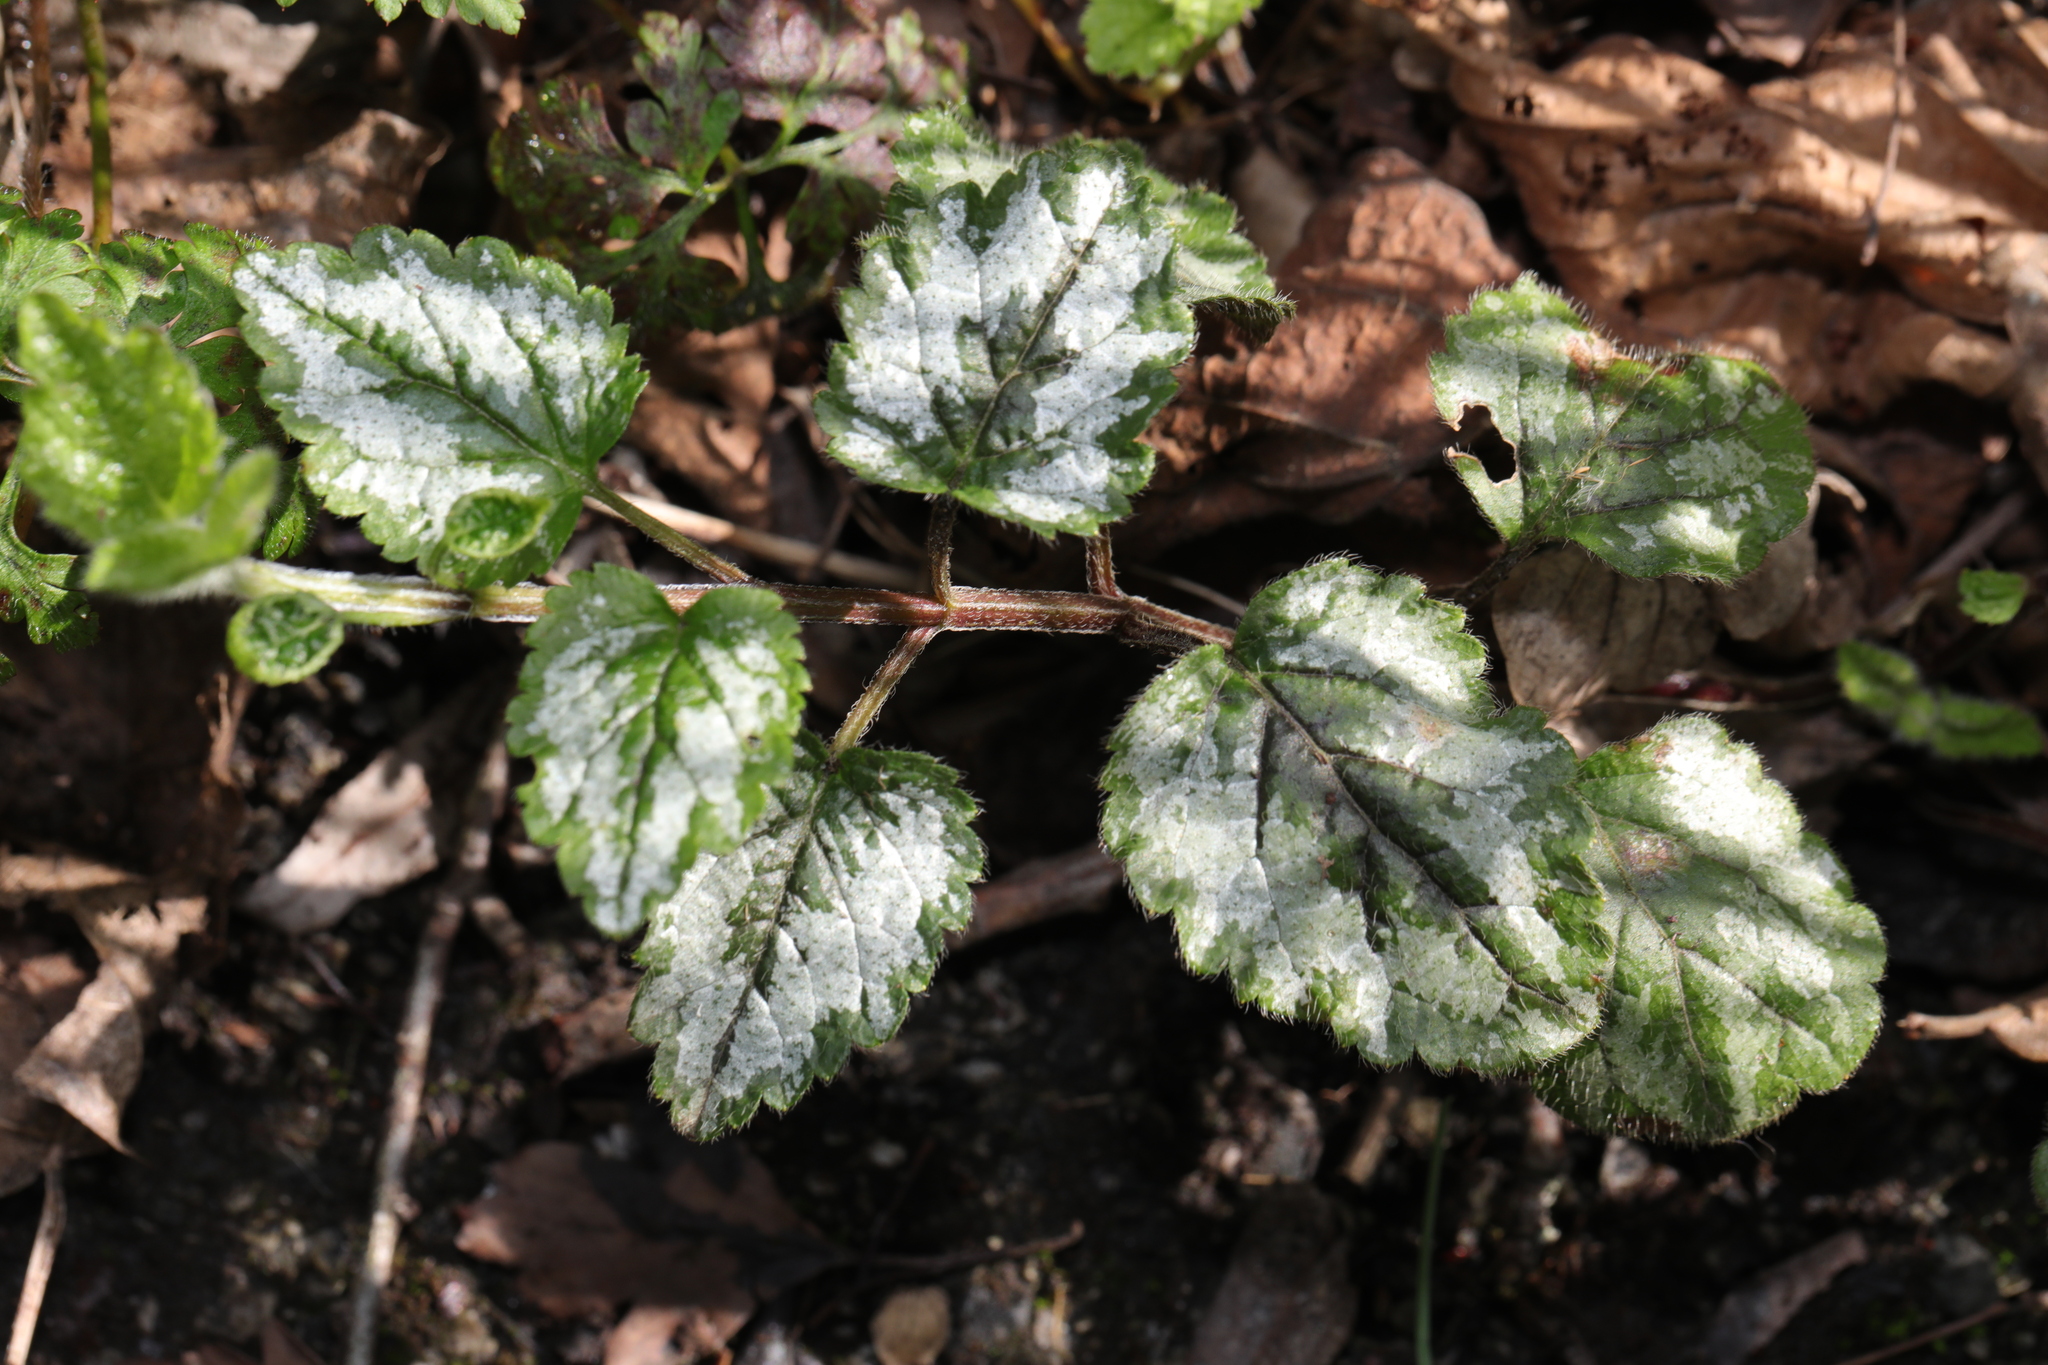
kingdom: Plantae
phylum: Tracheophyta
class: Magnoliopsida
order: Lamiales
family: Lamiaceae
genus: Lamium
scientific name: Lamium galeobdolon
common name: Yellow archangel
